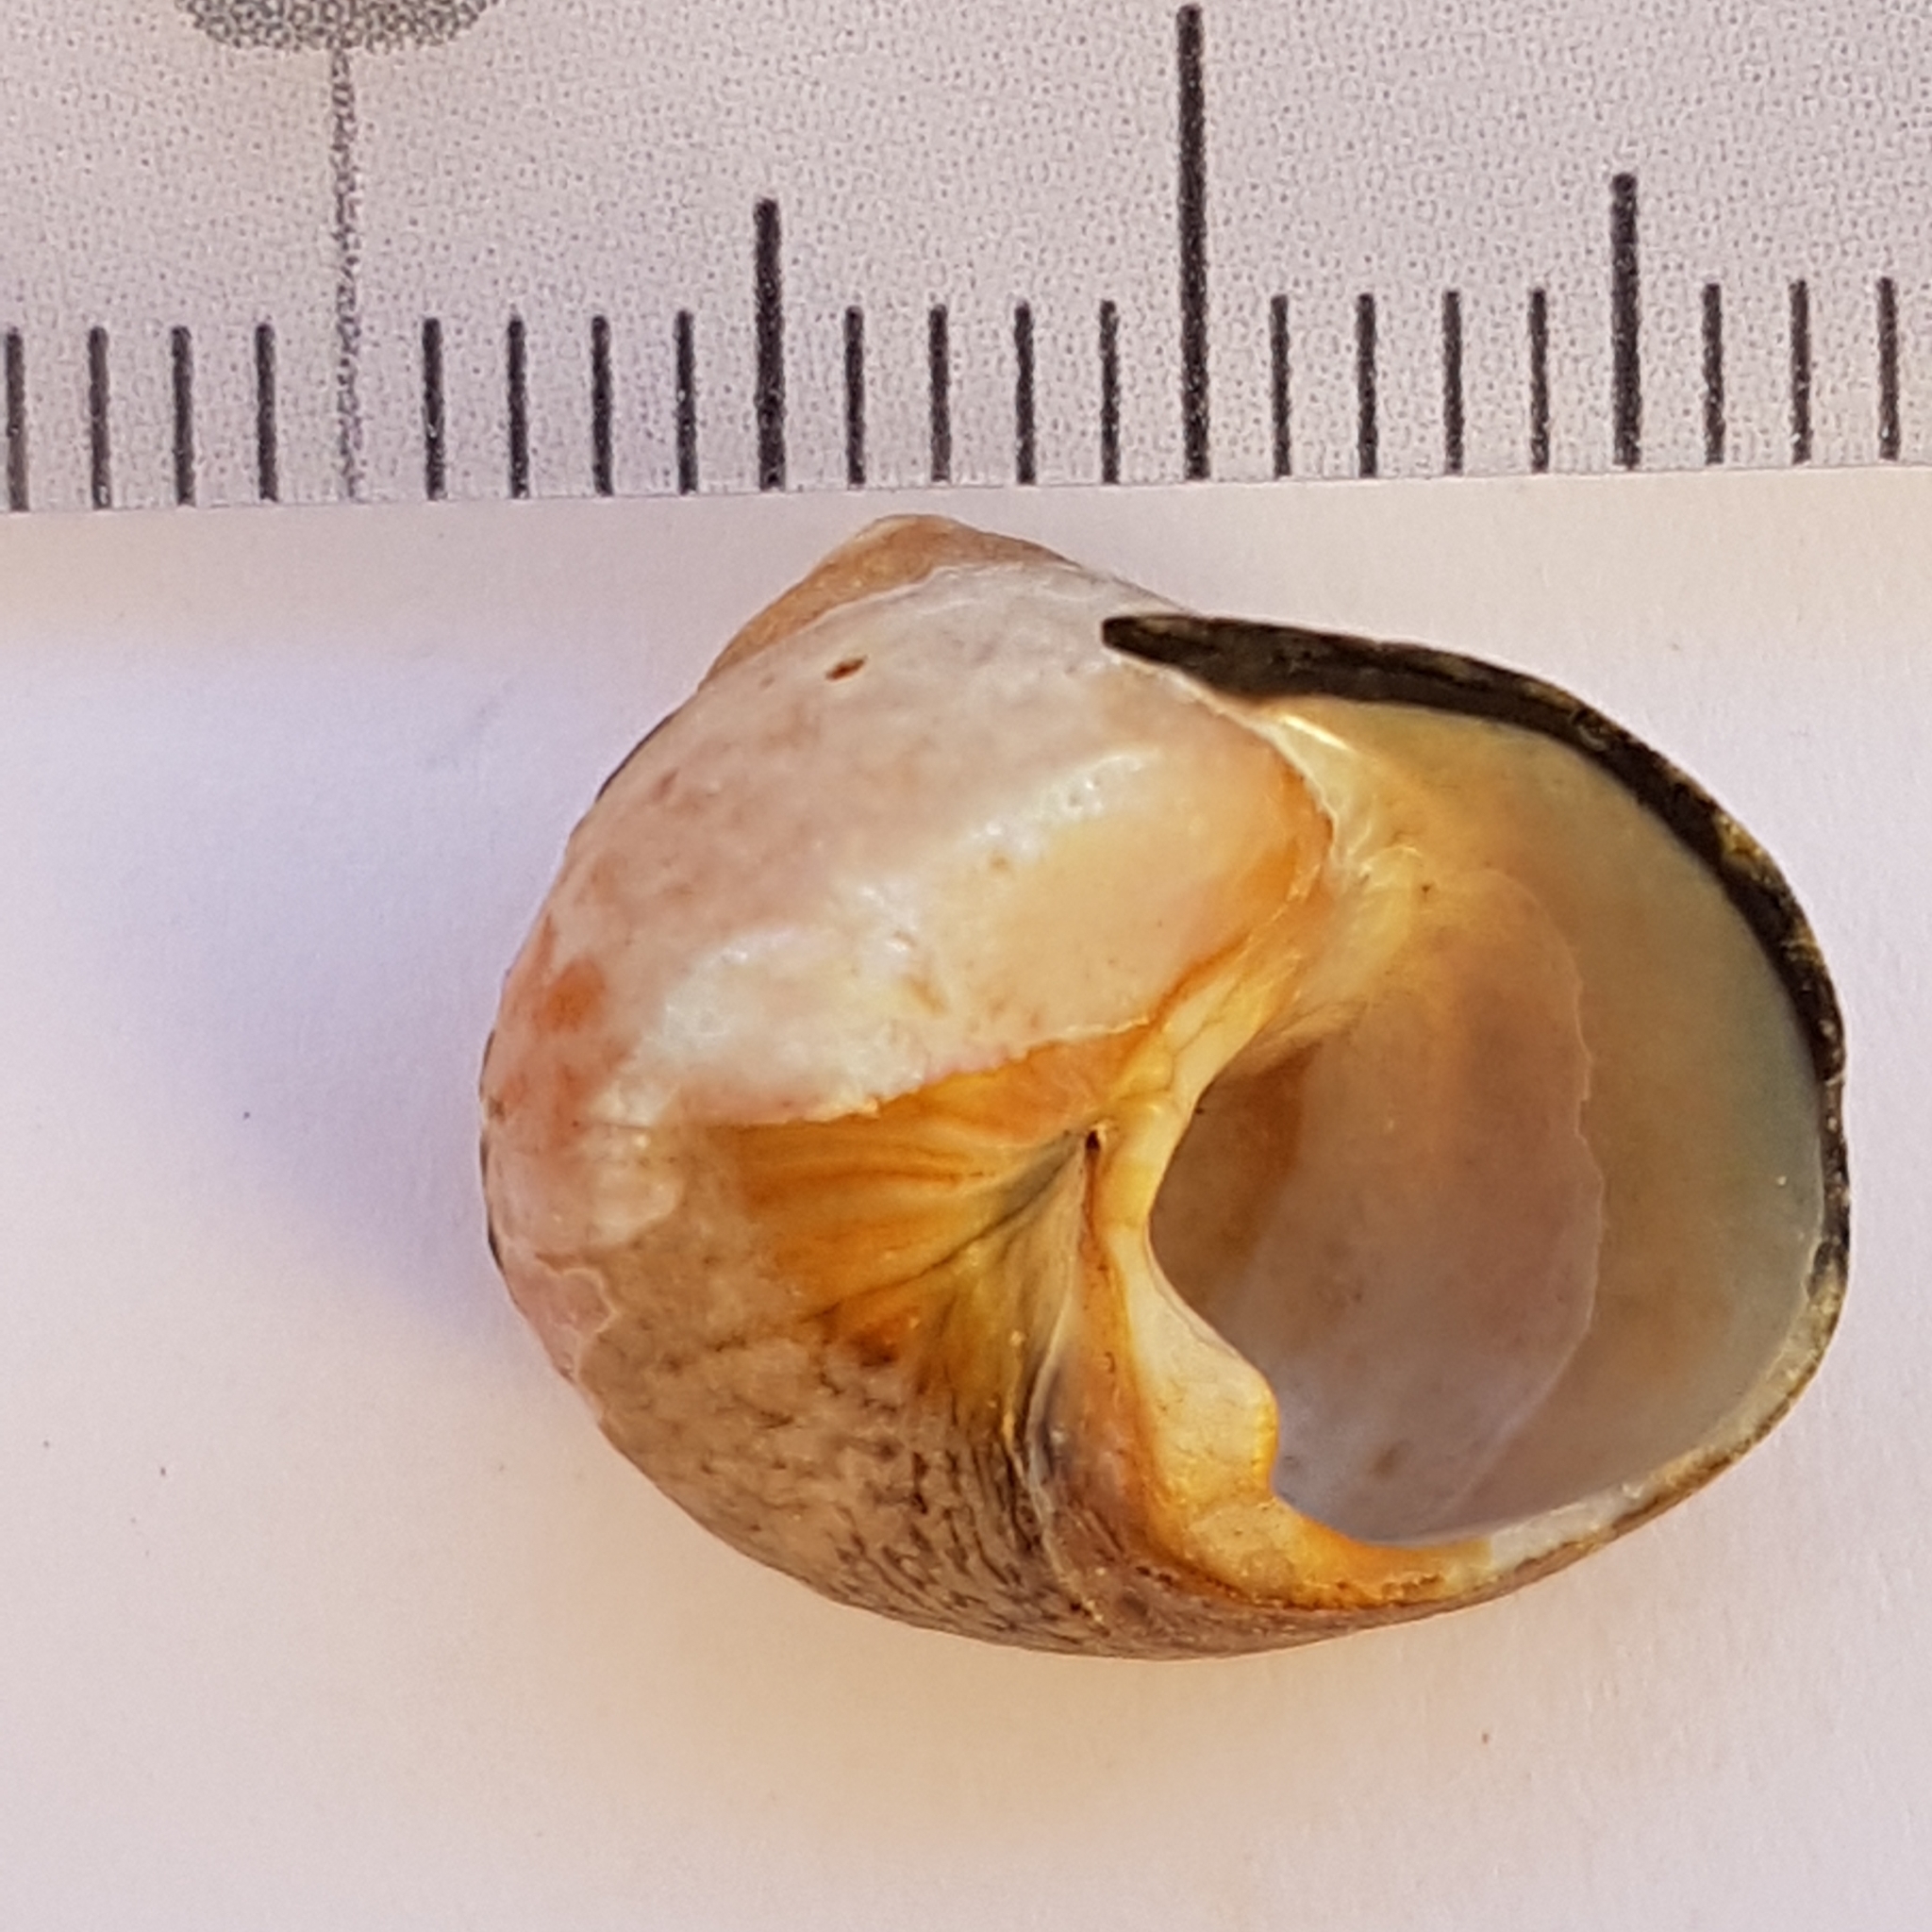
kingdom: Animalia
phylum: Mollusca
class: Gastropoda
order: Trochida
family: Trochidae
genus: Phorcus
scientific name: Phorcus lineatus
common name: Toothed top shell
